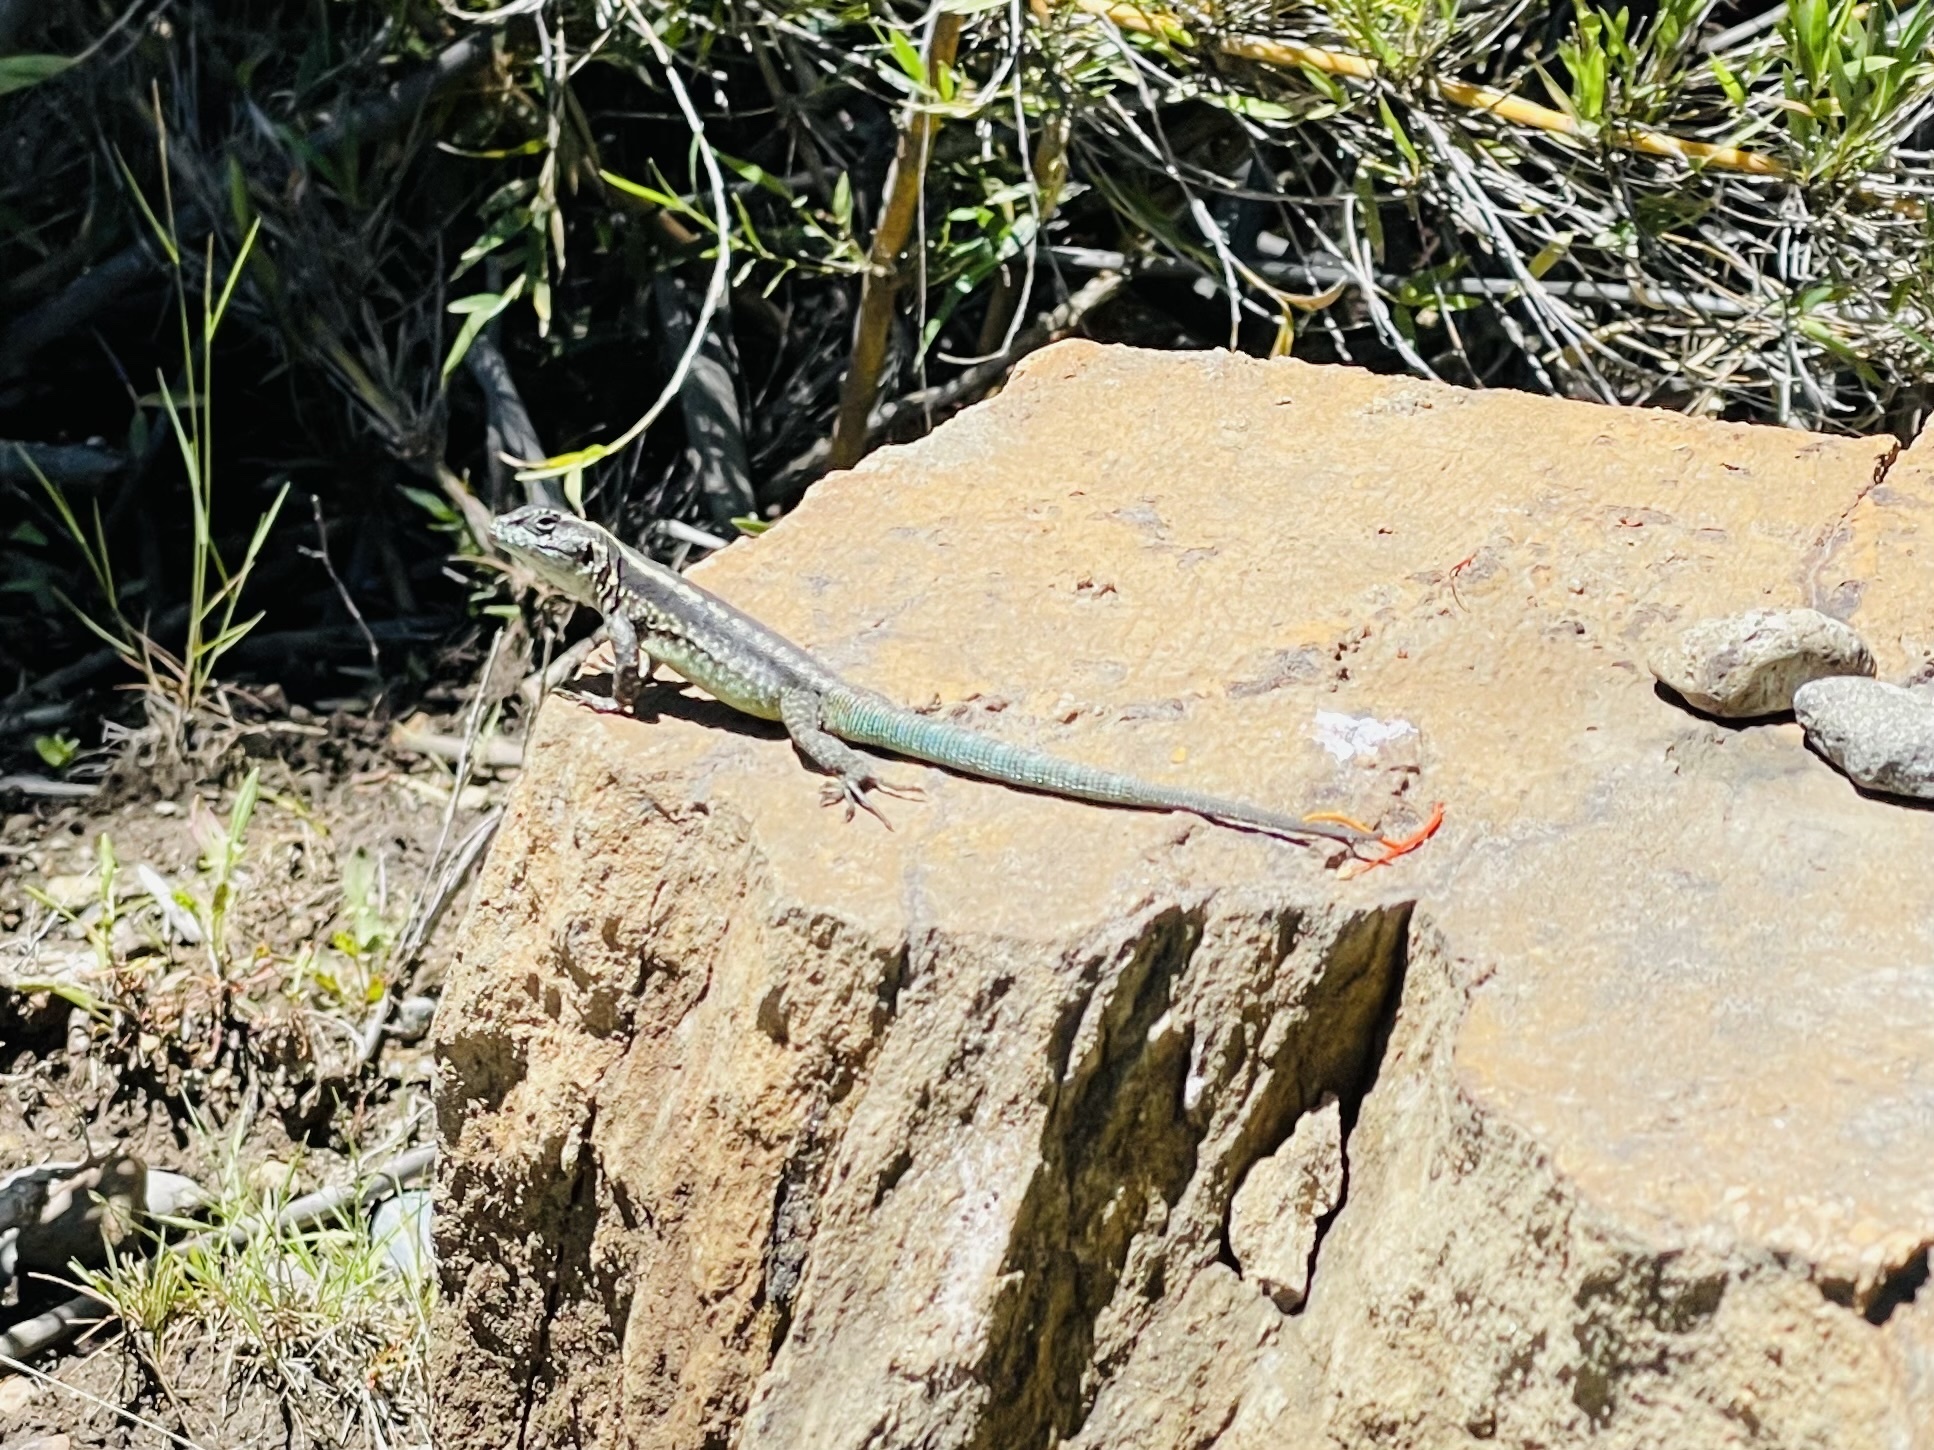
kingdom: Animalia
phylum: Chordata
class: Squamata
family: Liolaemidae
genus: Liolaemus
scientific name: Liolaemus septentrionalis
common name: Painted tree iguana
